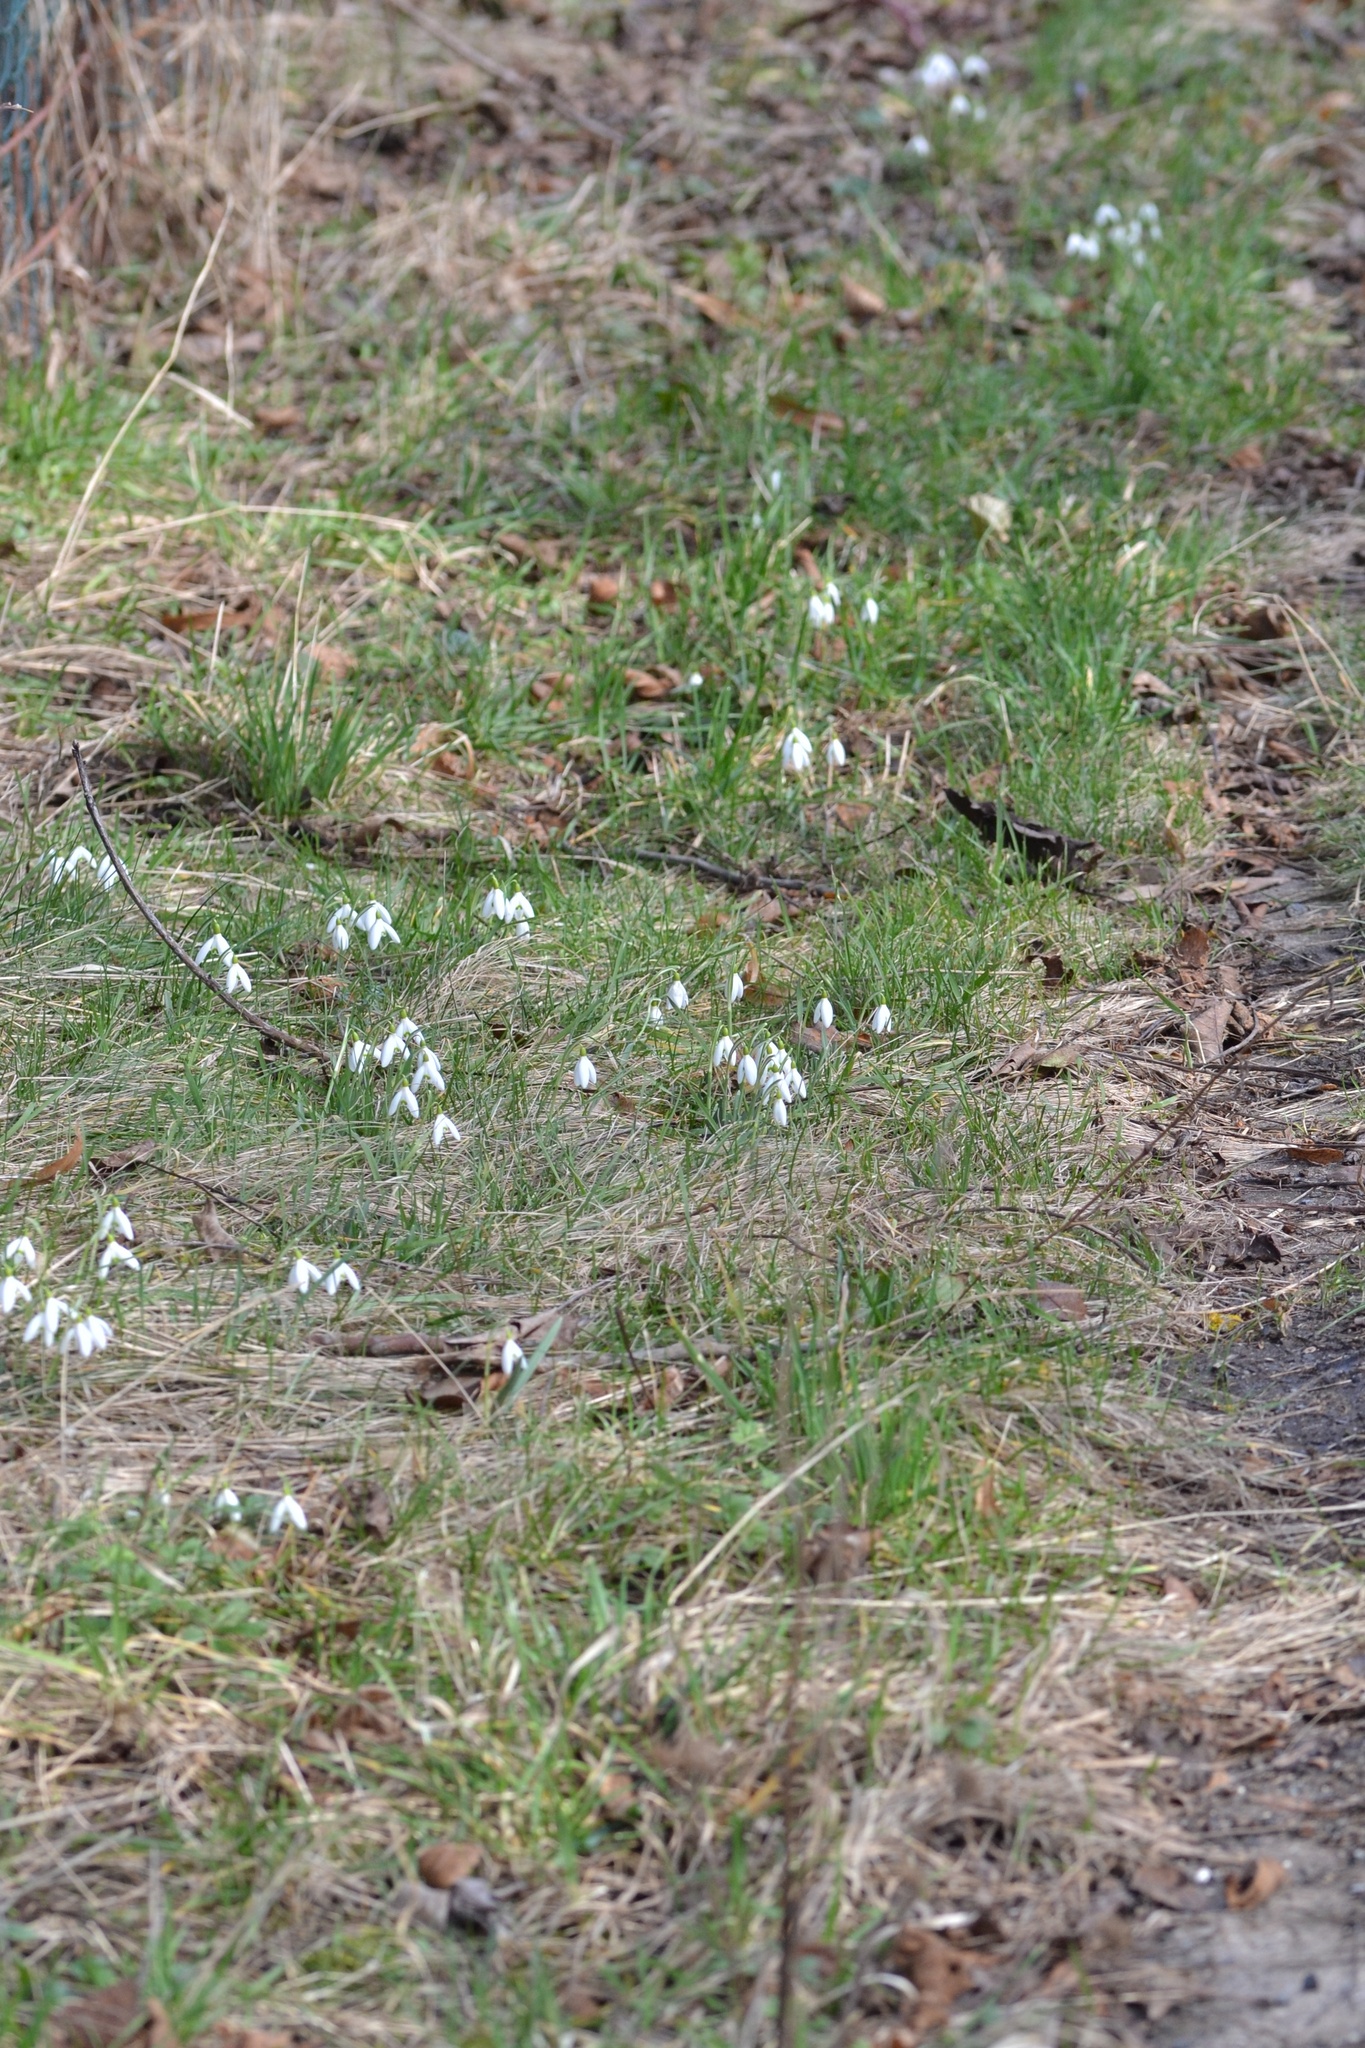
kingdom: Plantae
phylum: Tracheophyta
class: Liliopsida
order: Asparagales
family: Amaryllidaceae
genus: Galanthus
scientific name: Galanthus nivalis
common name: Snowdrop
